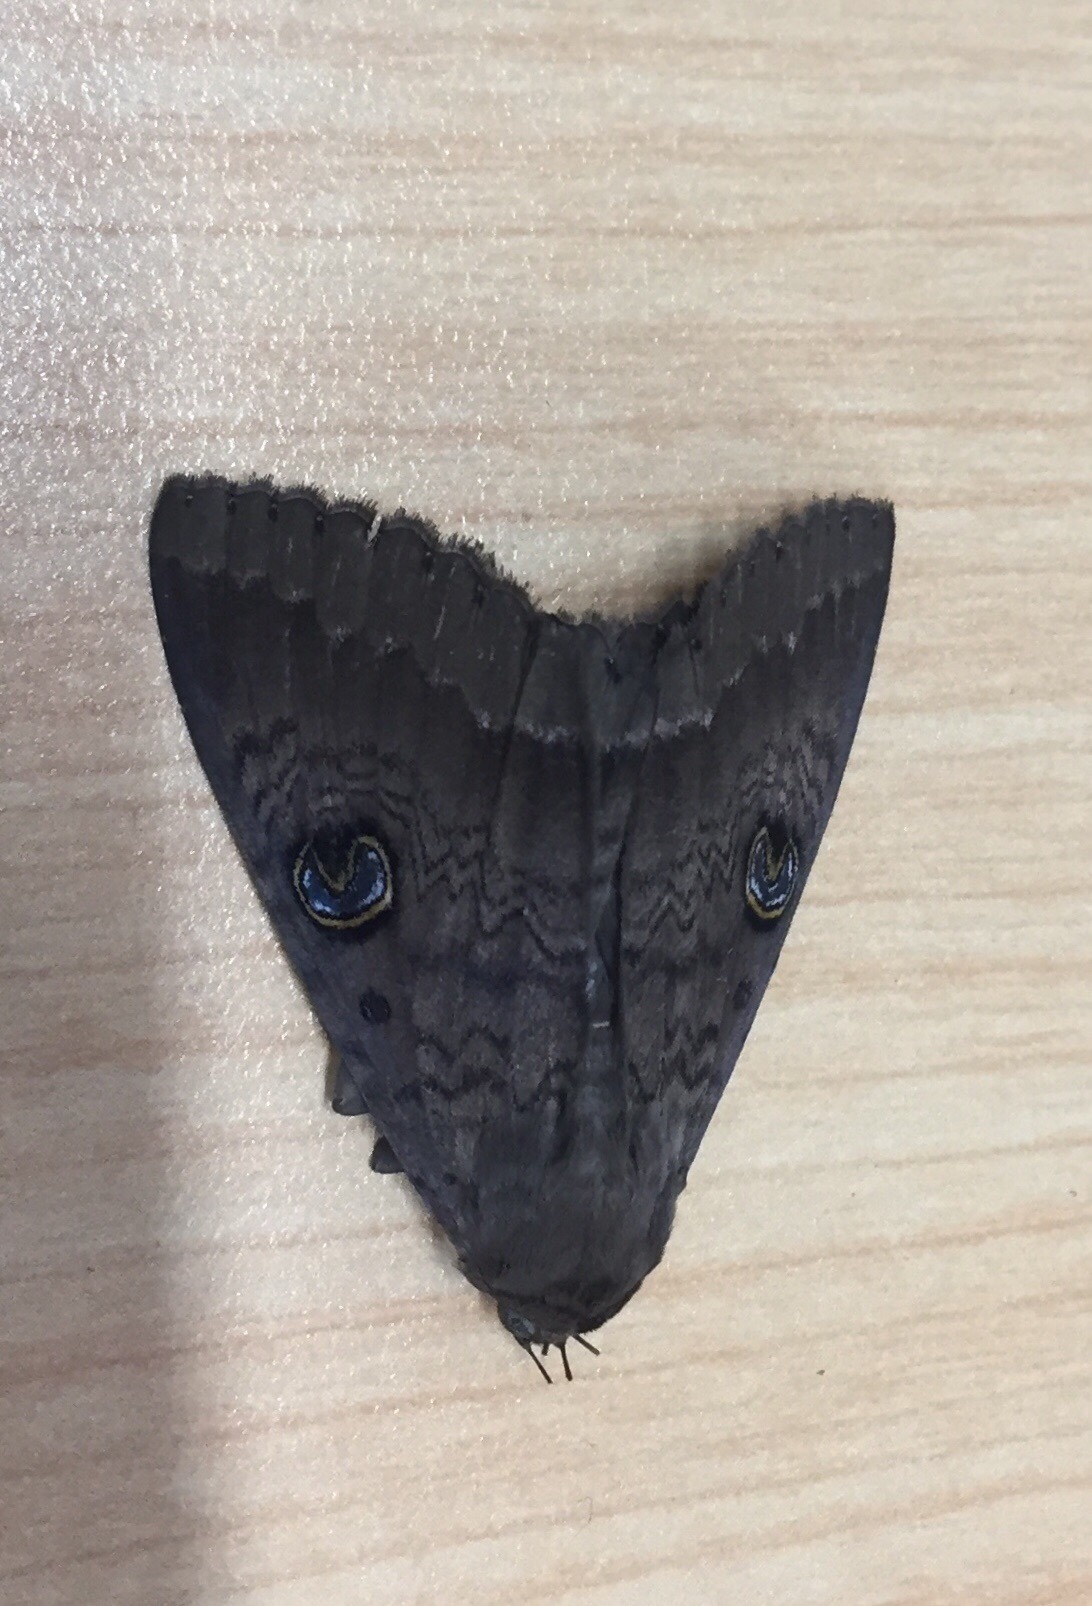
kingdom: Animalia
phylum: Arthropoda
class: Insecta
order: Lepidoptera
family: Erebidae
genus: Dasypodia
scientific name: Dasypodia cymatodes
